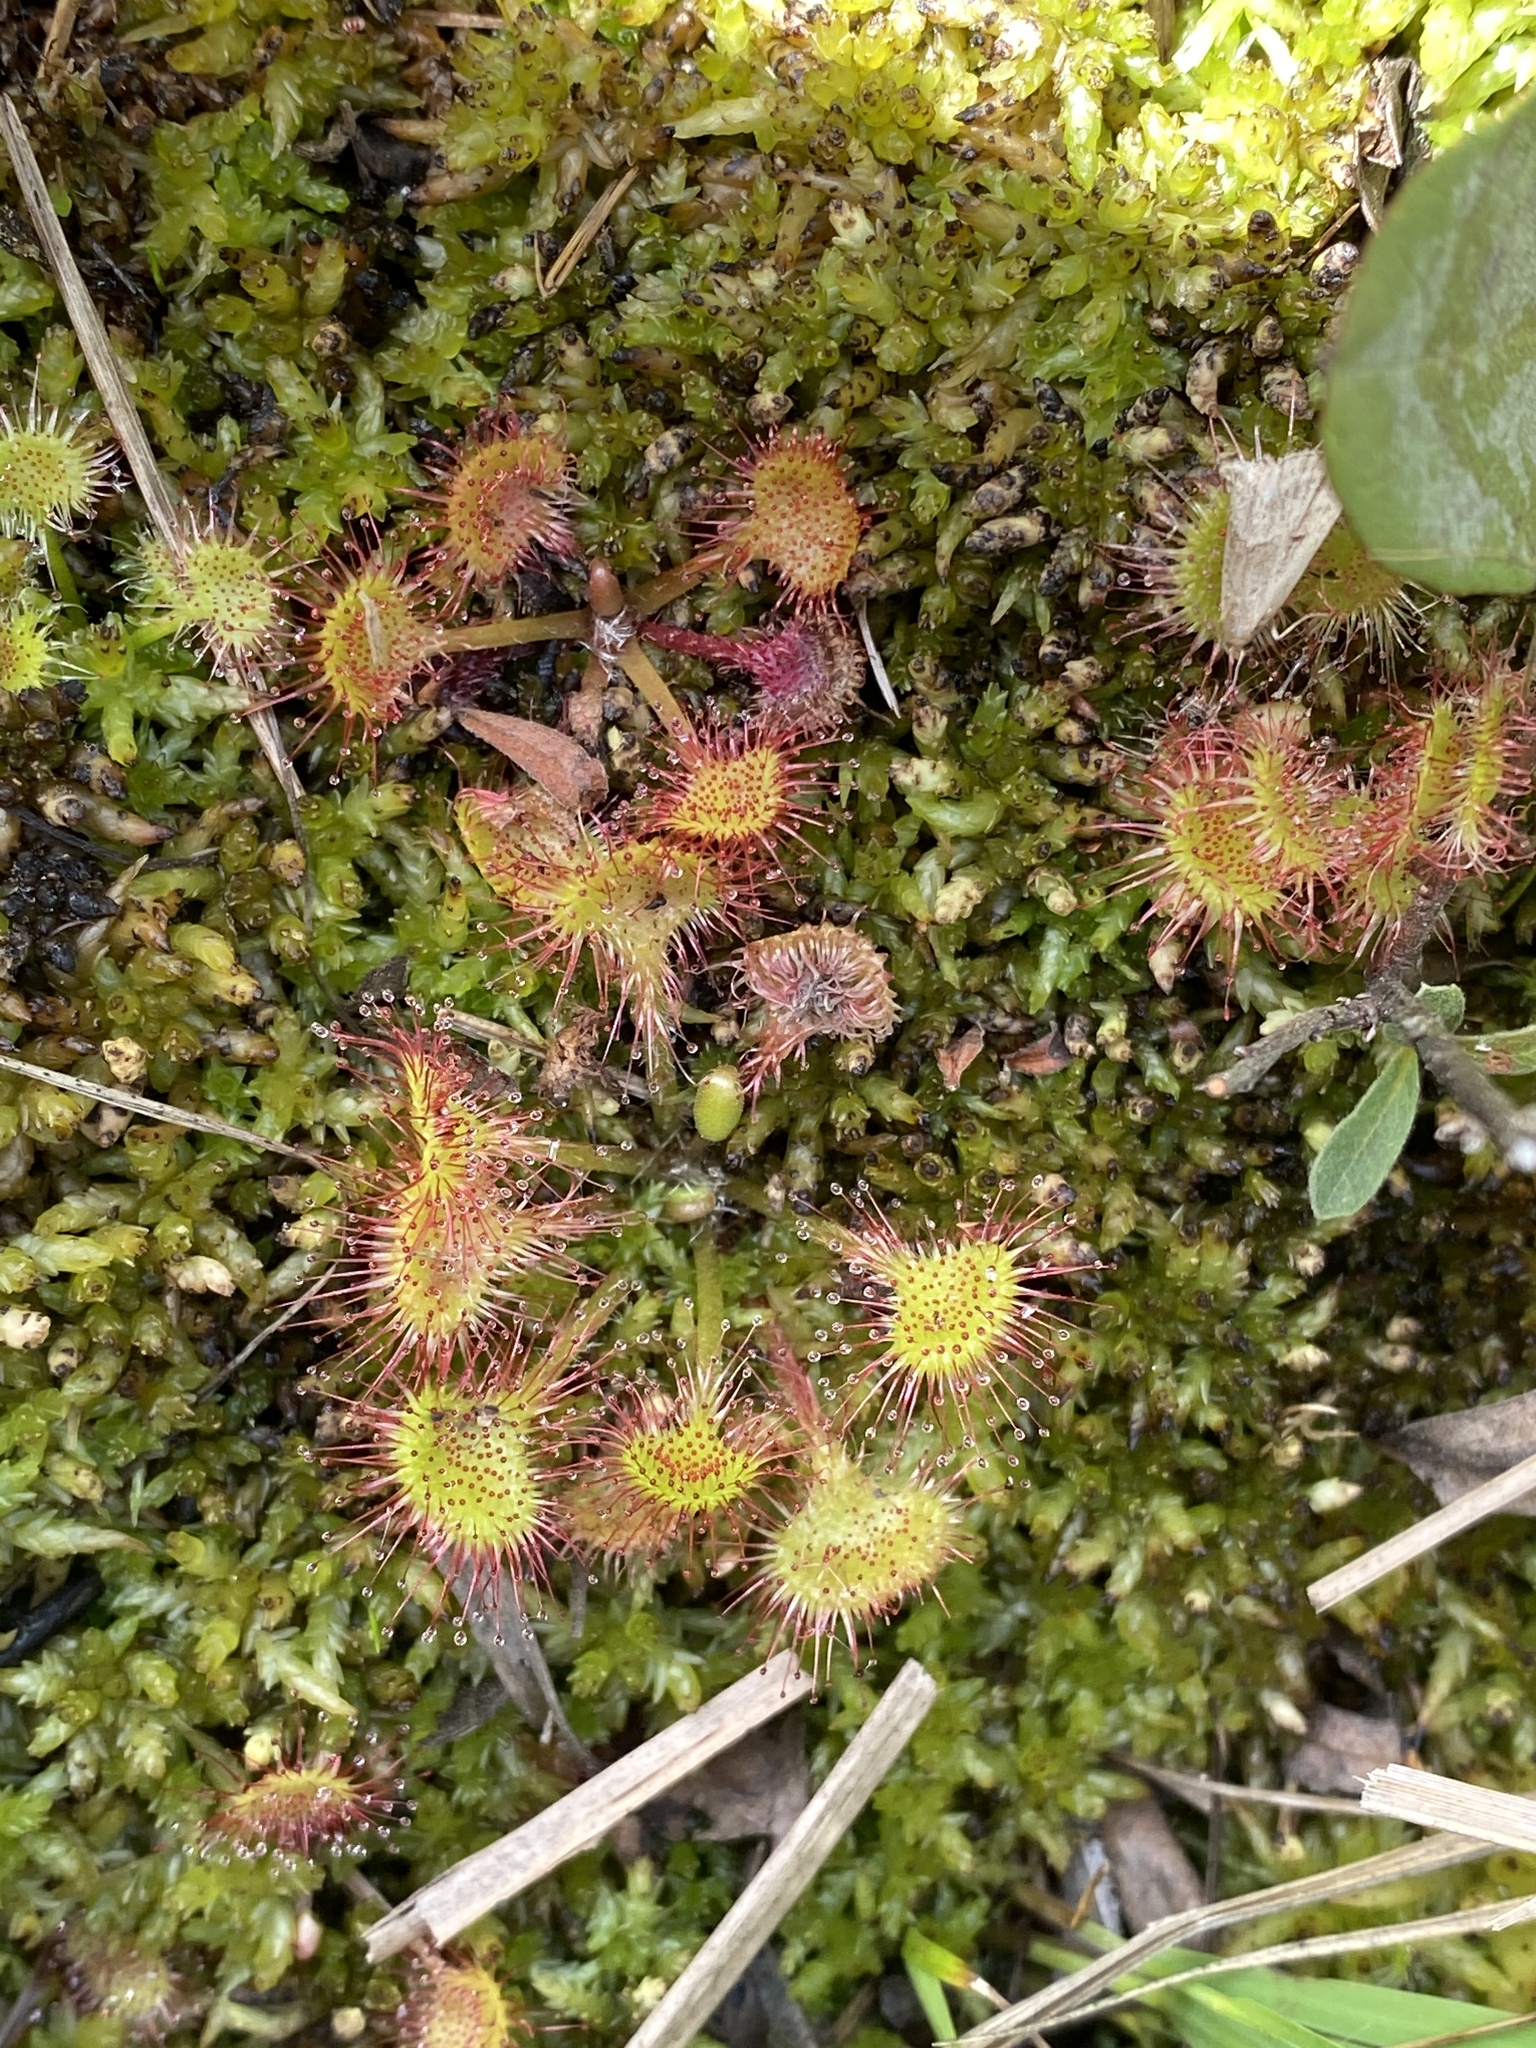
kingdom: Plantae
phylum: Tracheophyta
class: Magnoliopsida
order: Caryophyllales
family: Droseraceae
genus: Drosera
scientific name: Drosera rotundifolia
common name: Round-leaved sundew
